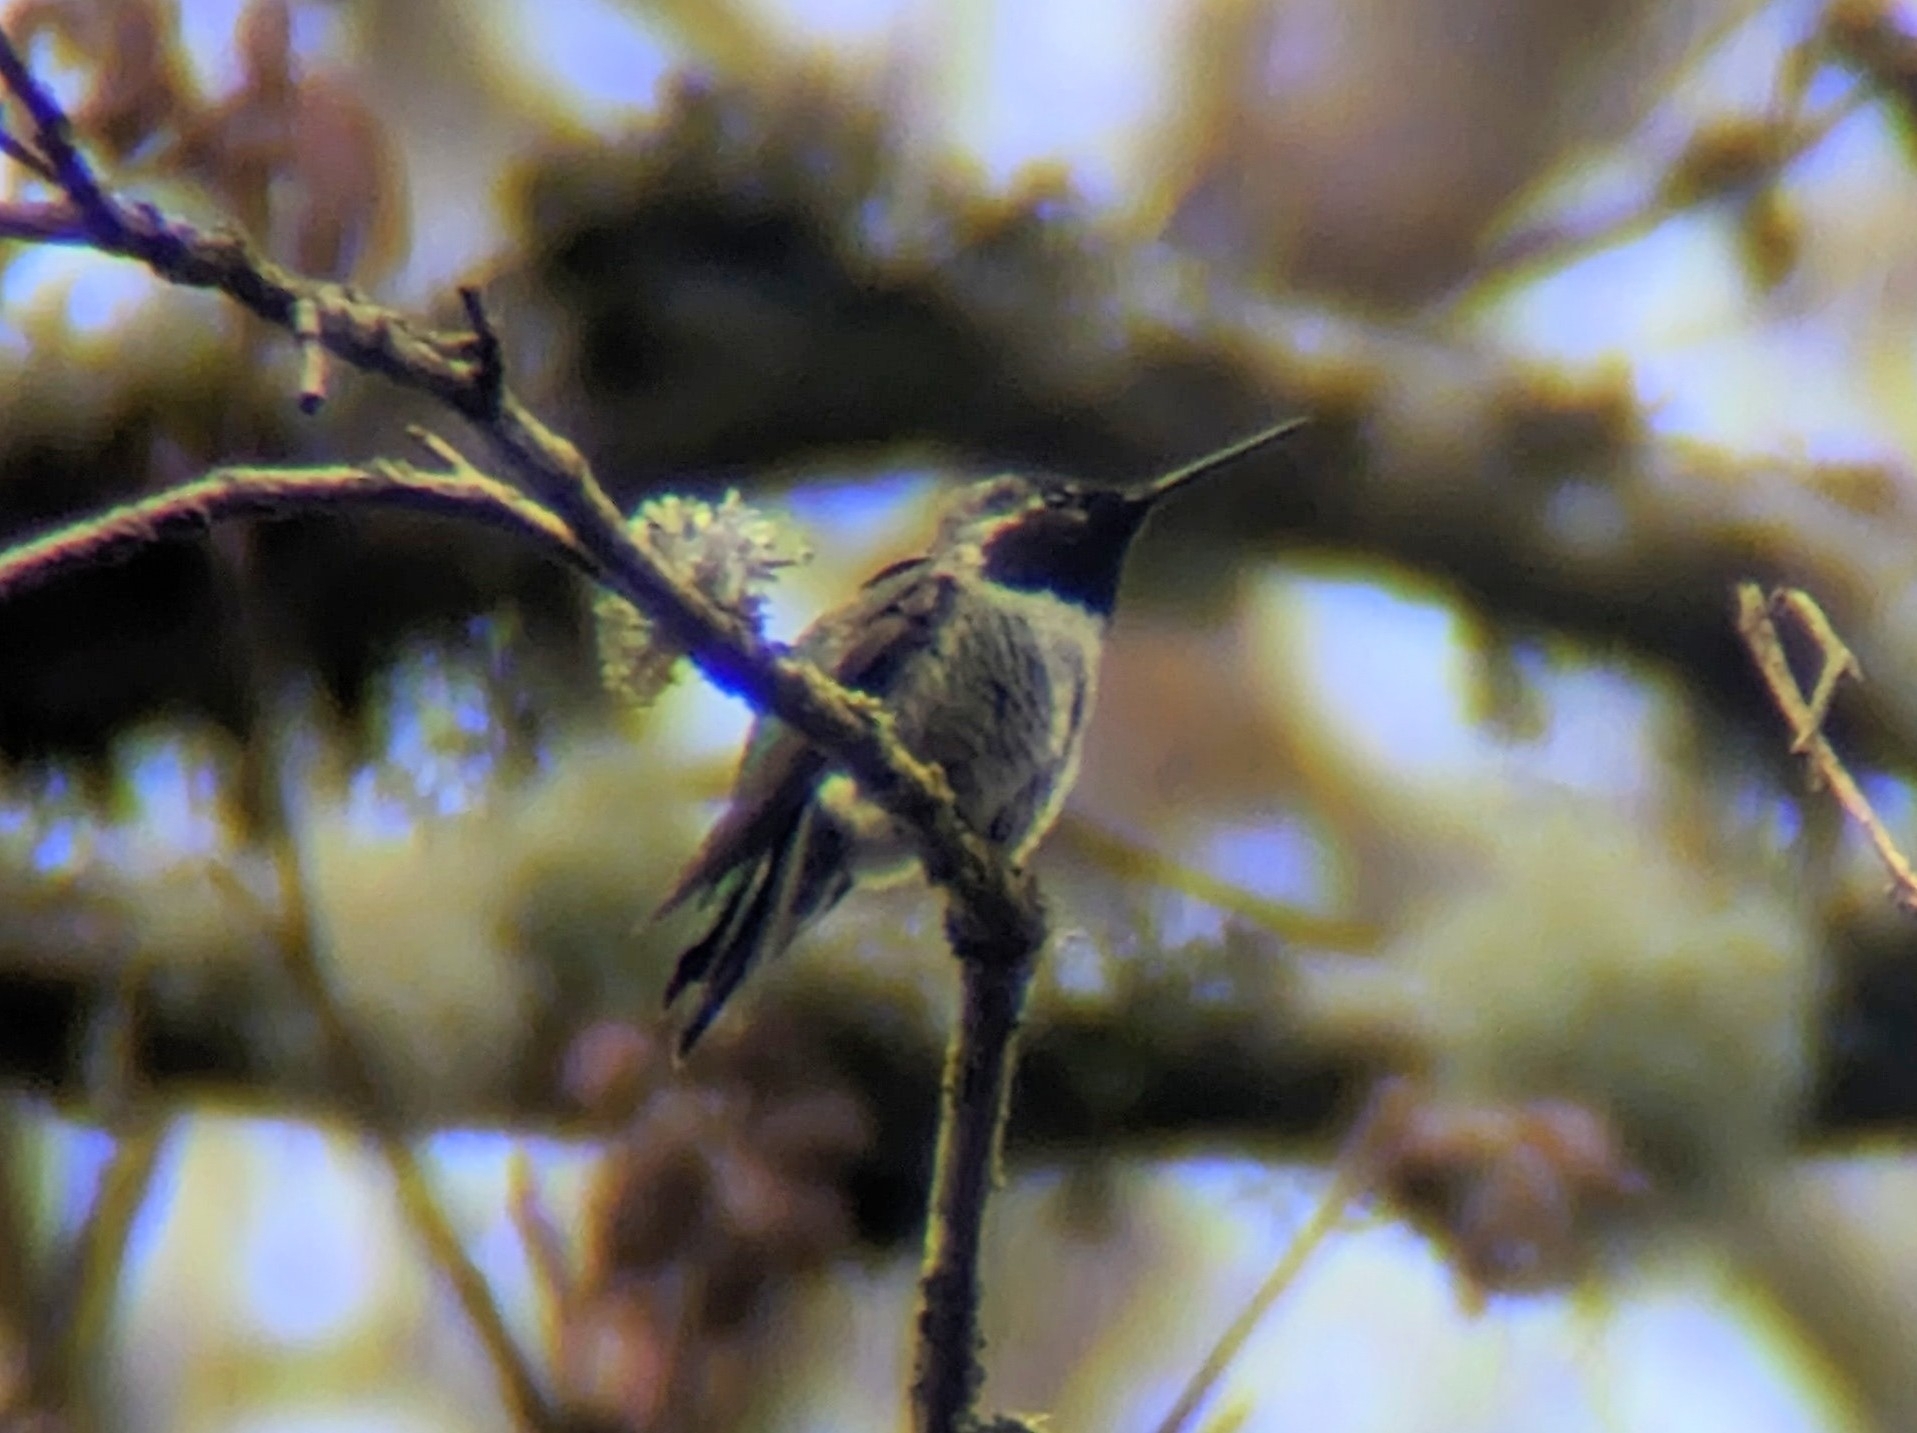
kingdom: Animalia
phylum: Chordata
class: Aves
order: Apodiformes
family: Trochilidae
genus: Calypte
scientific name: Calypte anna
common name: Anna's hummingbird
